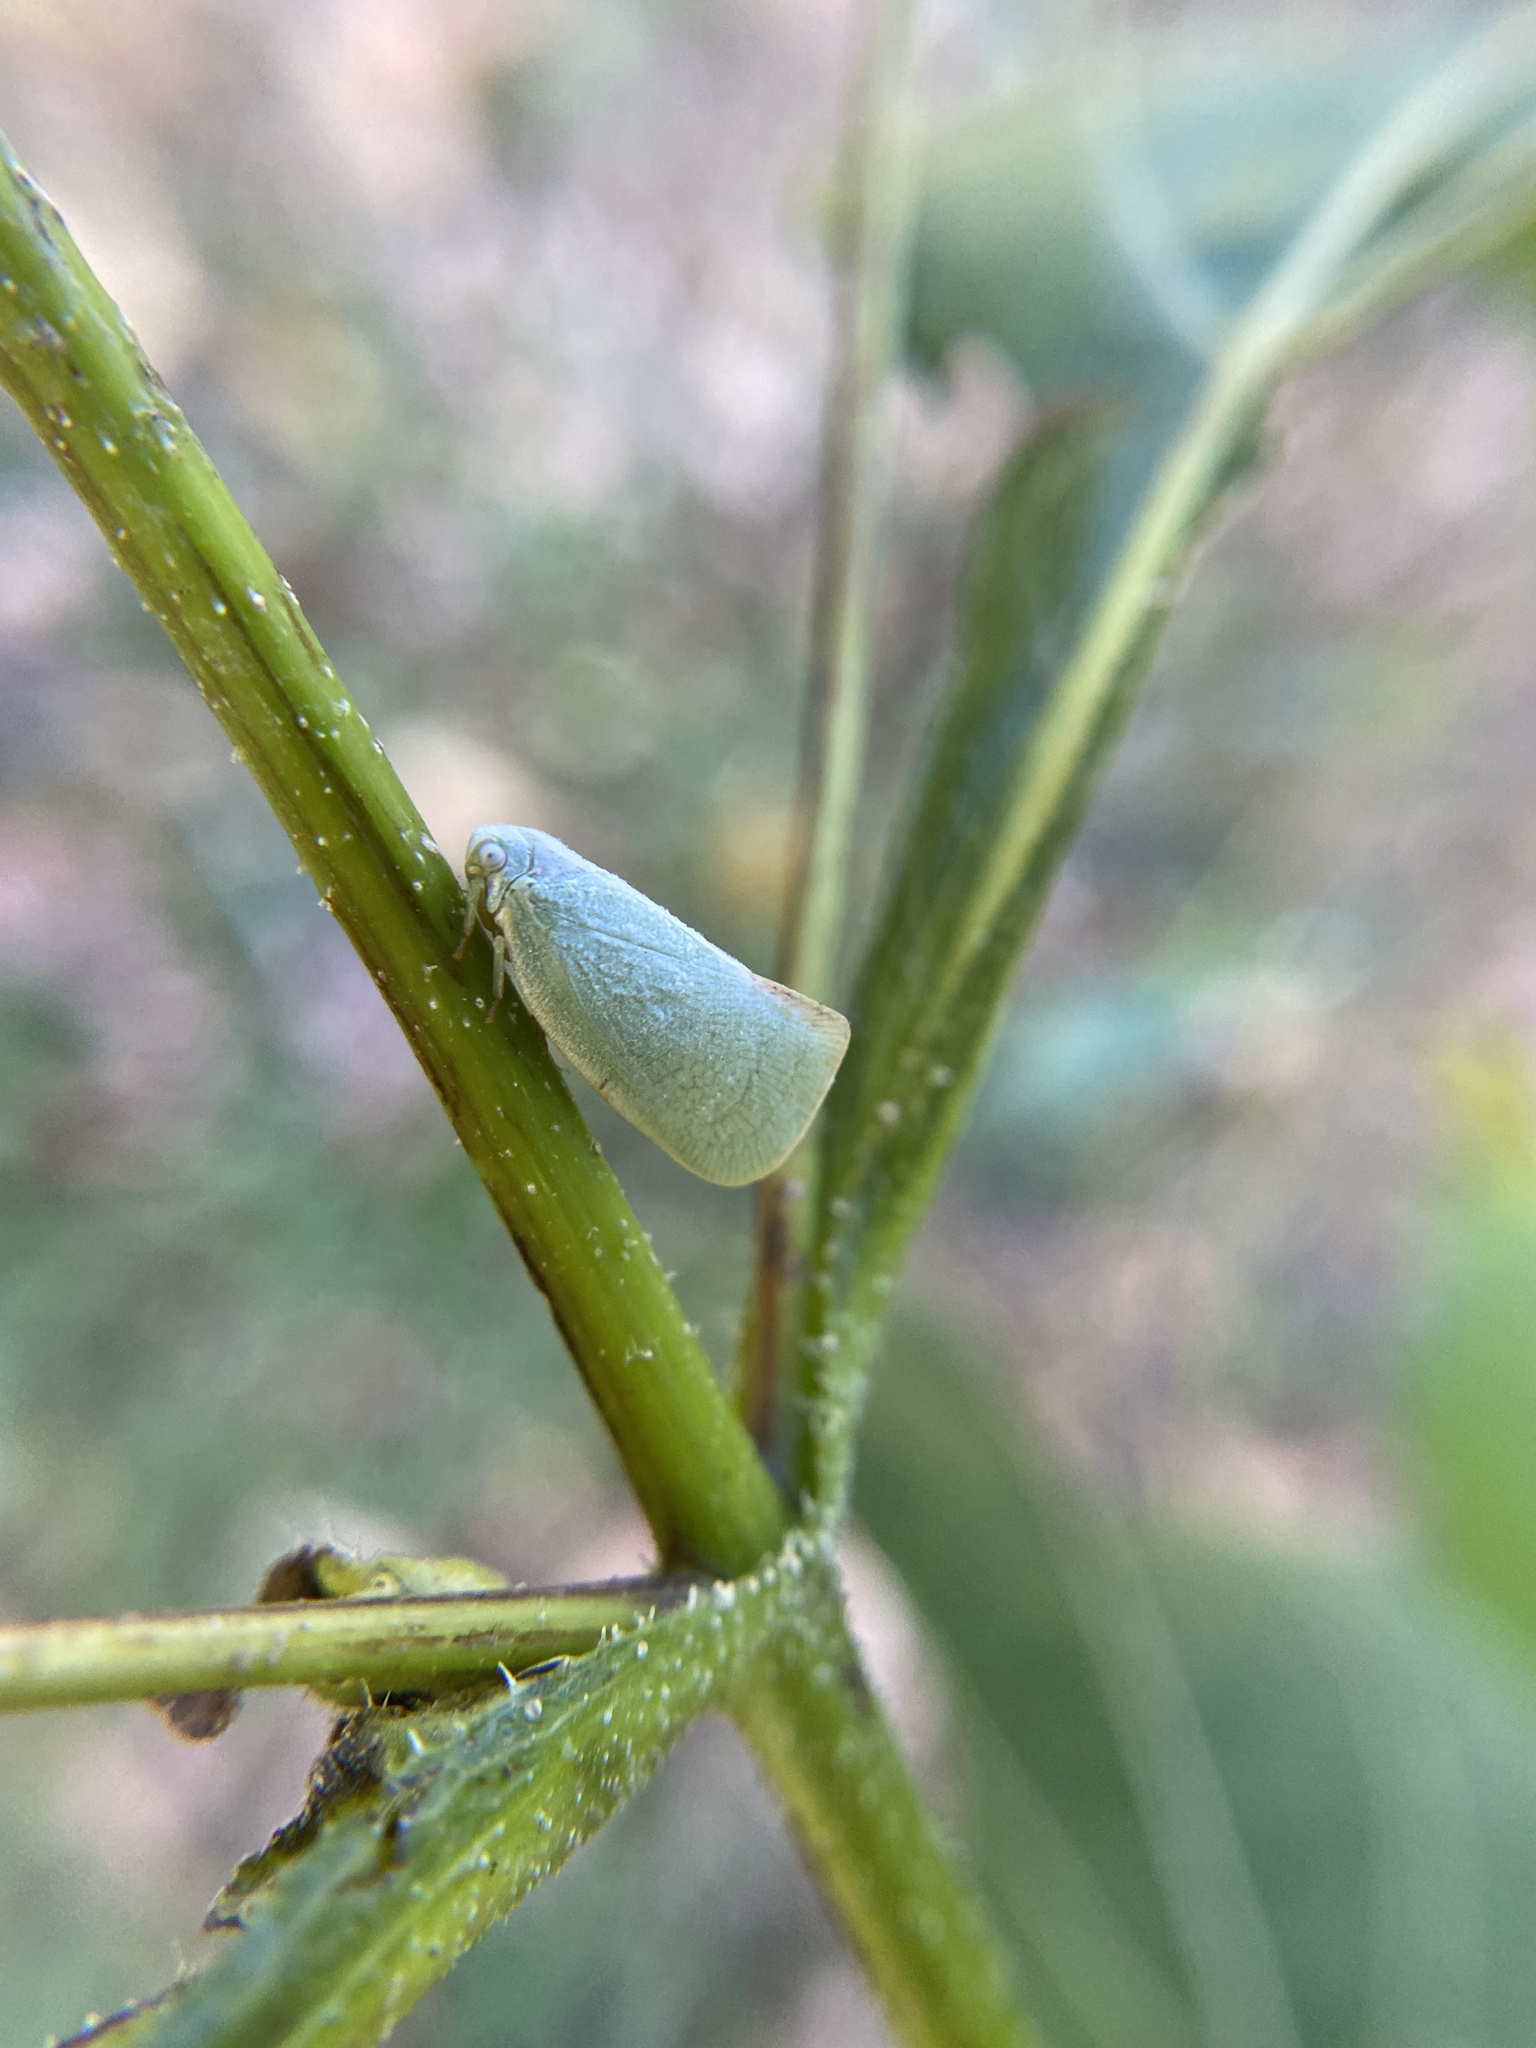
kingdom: Animalia
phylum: Arthropoda
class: Insecta
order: Hemiptera
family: Flatidae
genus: Flatormenis
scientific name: Flatormenis proxima
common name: Northern flatid planthopper
